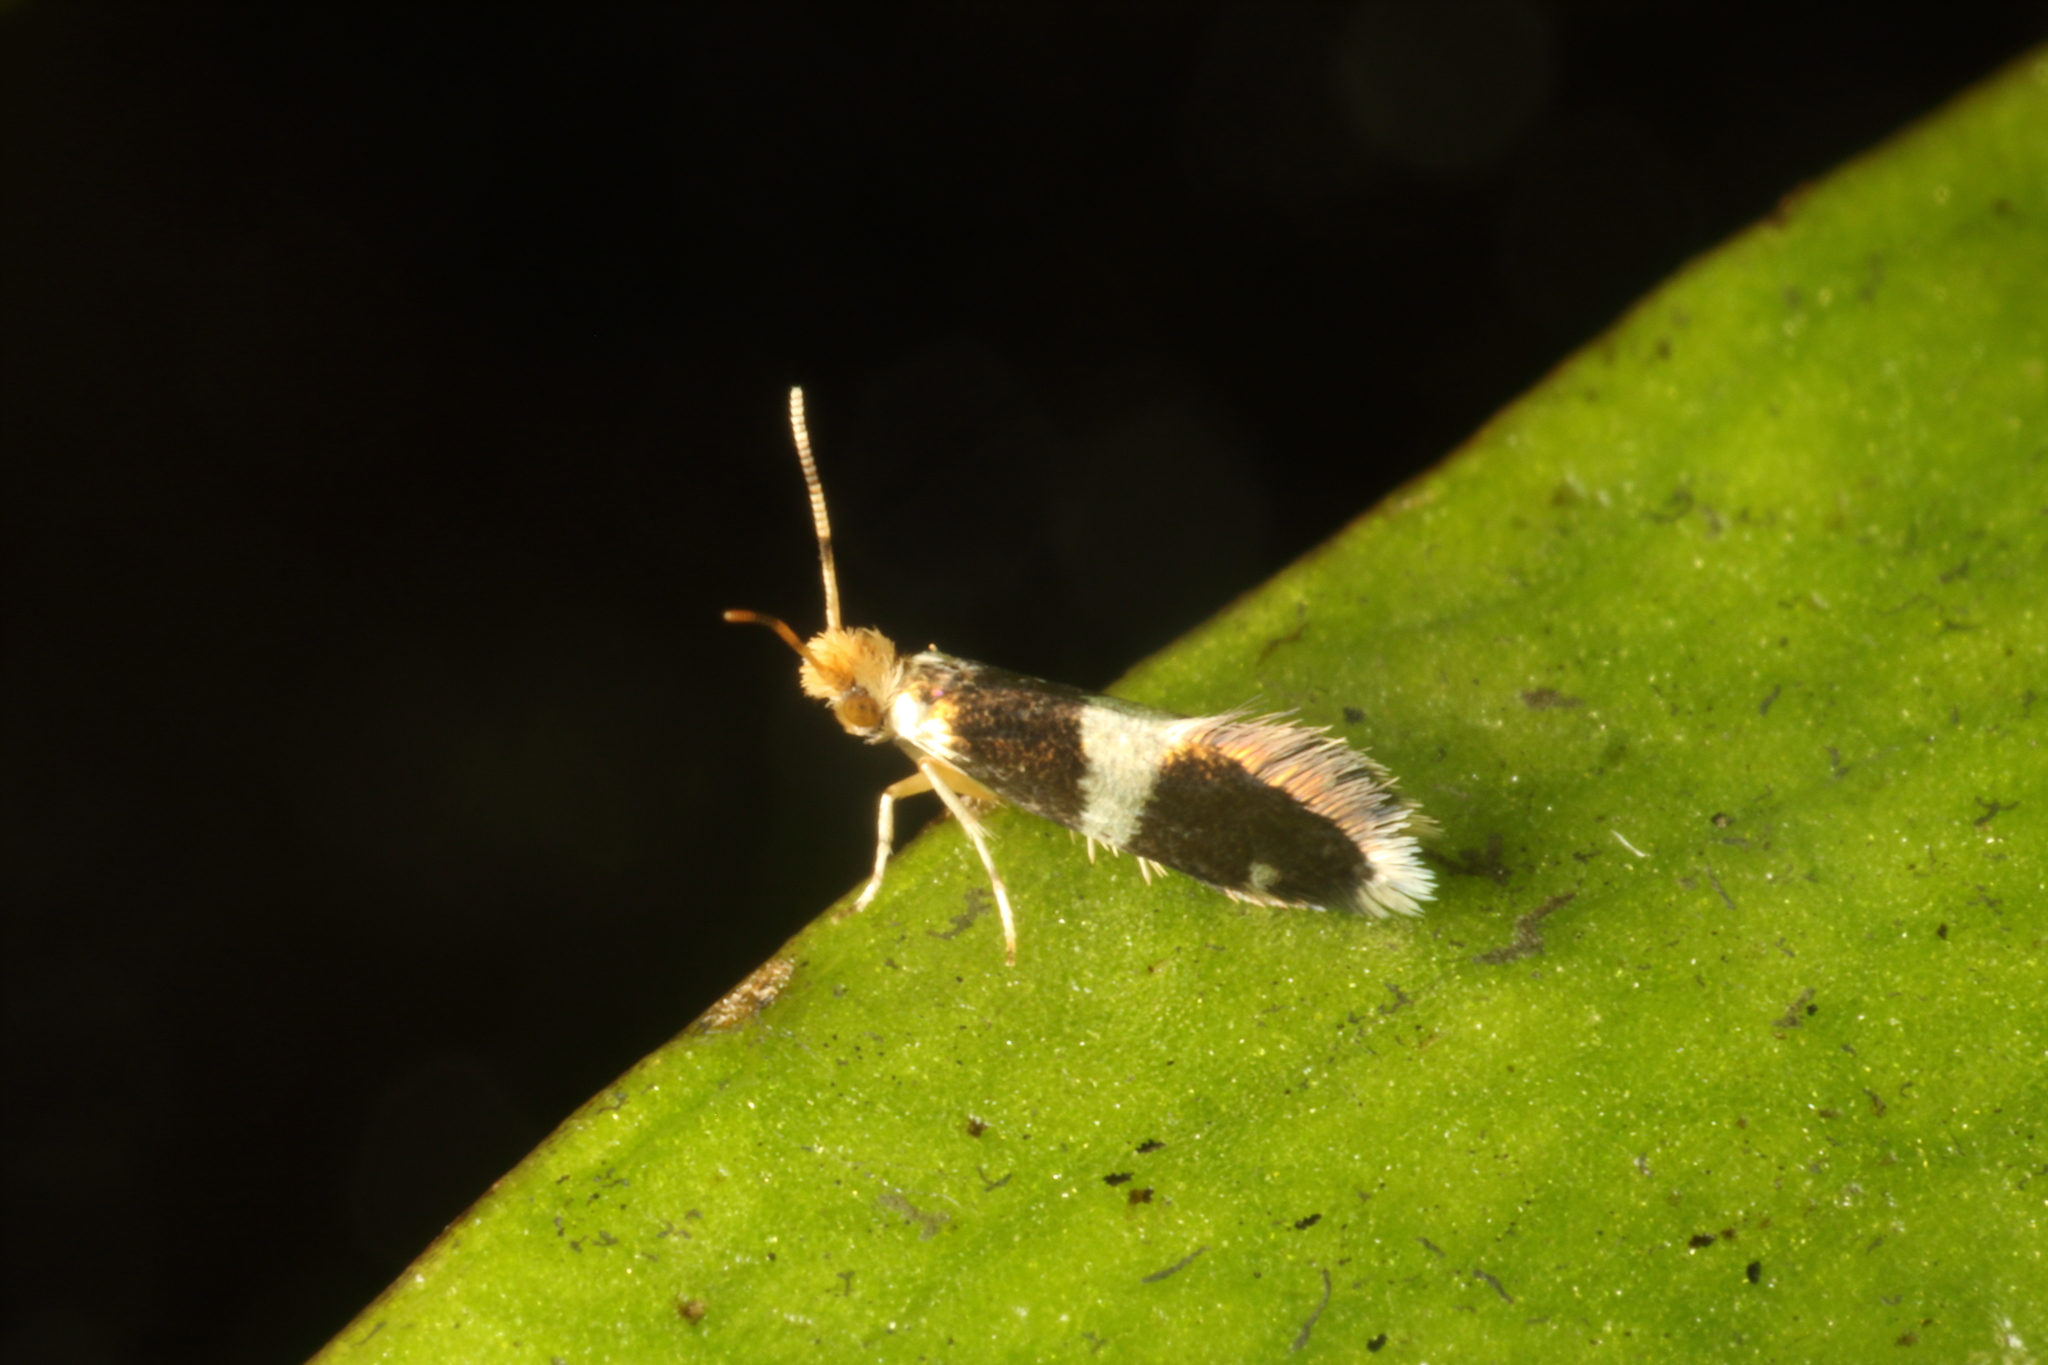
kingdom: Animalia
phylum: Arthropoda
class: Insecta
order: Lepidoptera
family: Micropterigidae
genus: Zealandopterix
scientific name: Zealandopterix zonodoxa
